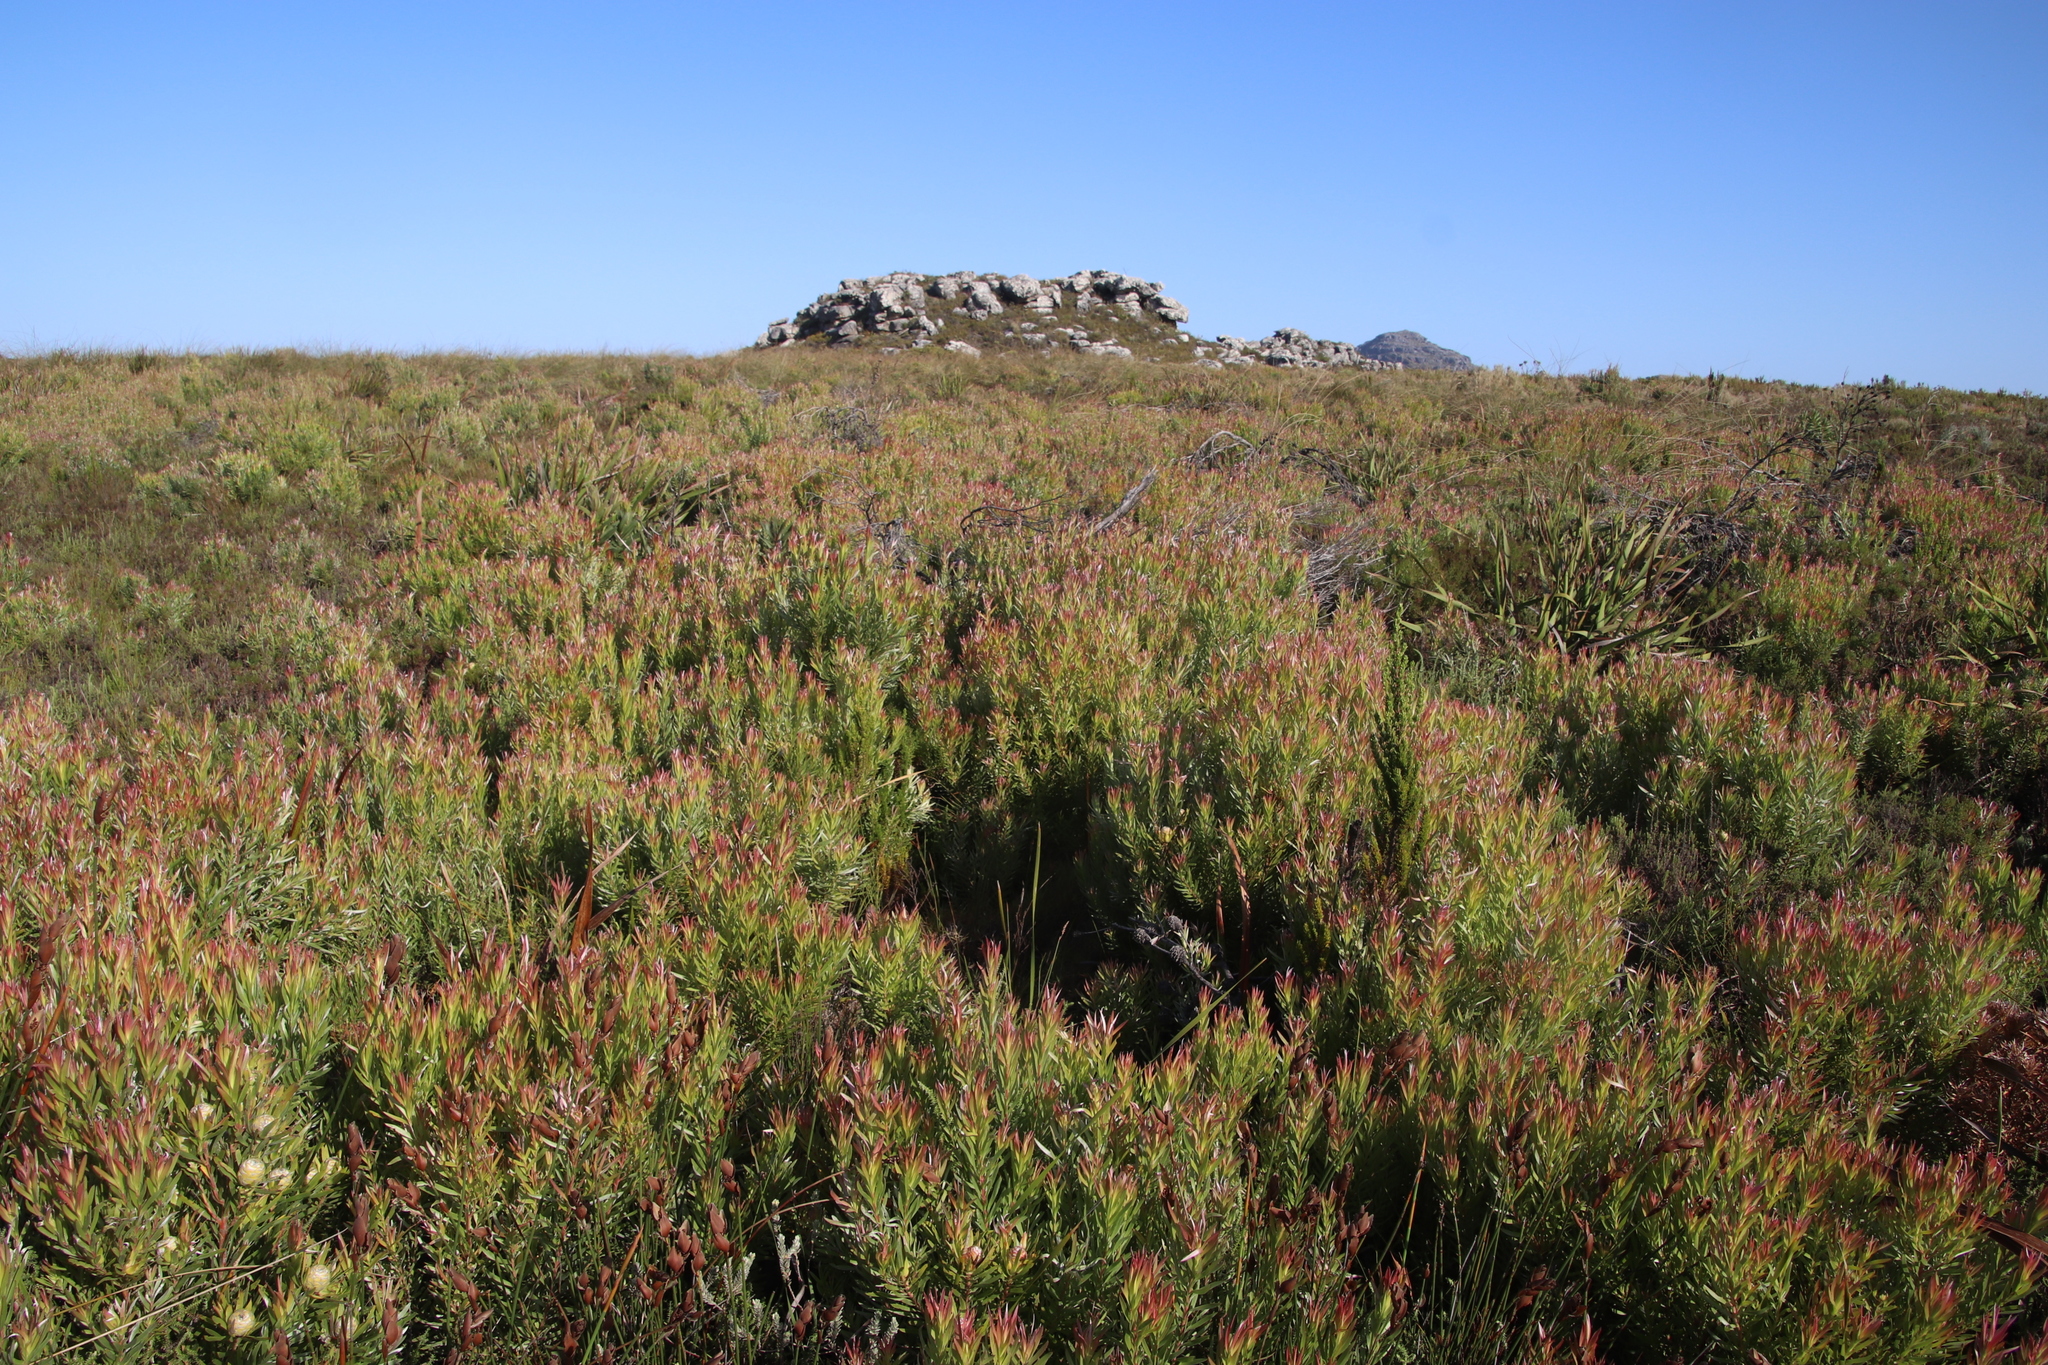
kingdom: Plantae
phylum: Tracheophyta
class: Magnoliopsida
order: Proteales
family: Proteaceae
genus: Leucadendron
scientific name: Leucadendron xanthoconus
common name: Sickle-leaf conebush
